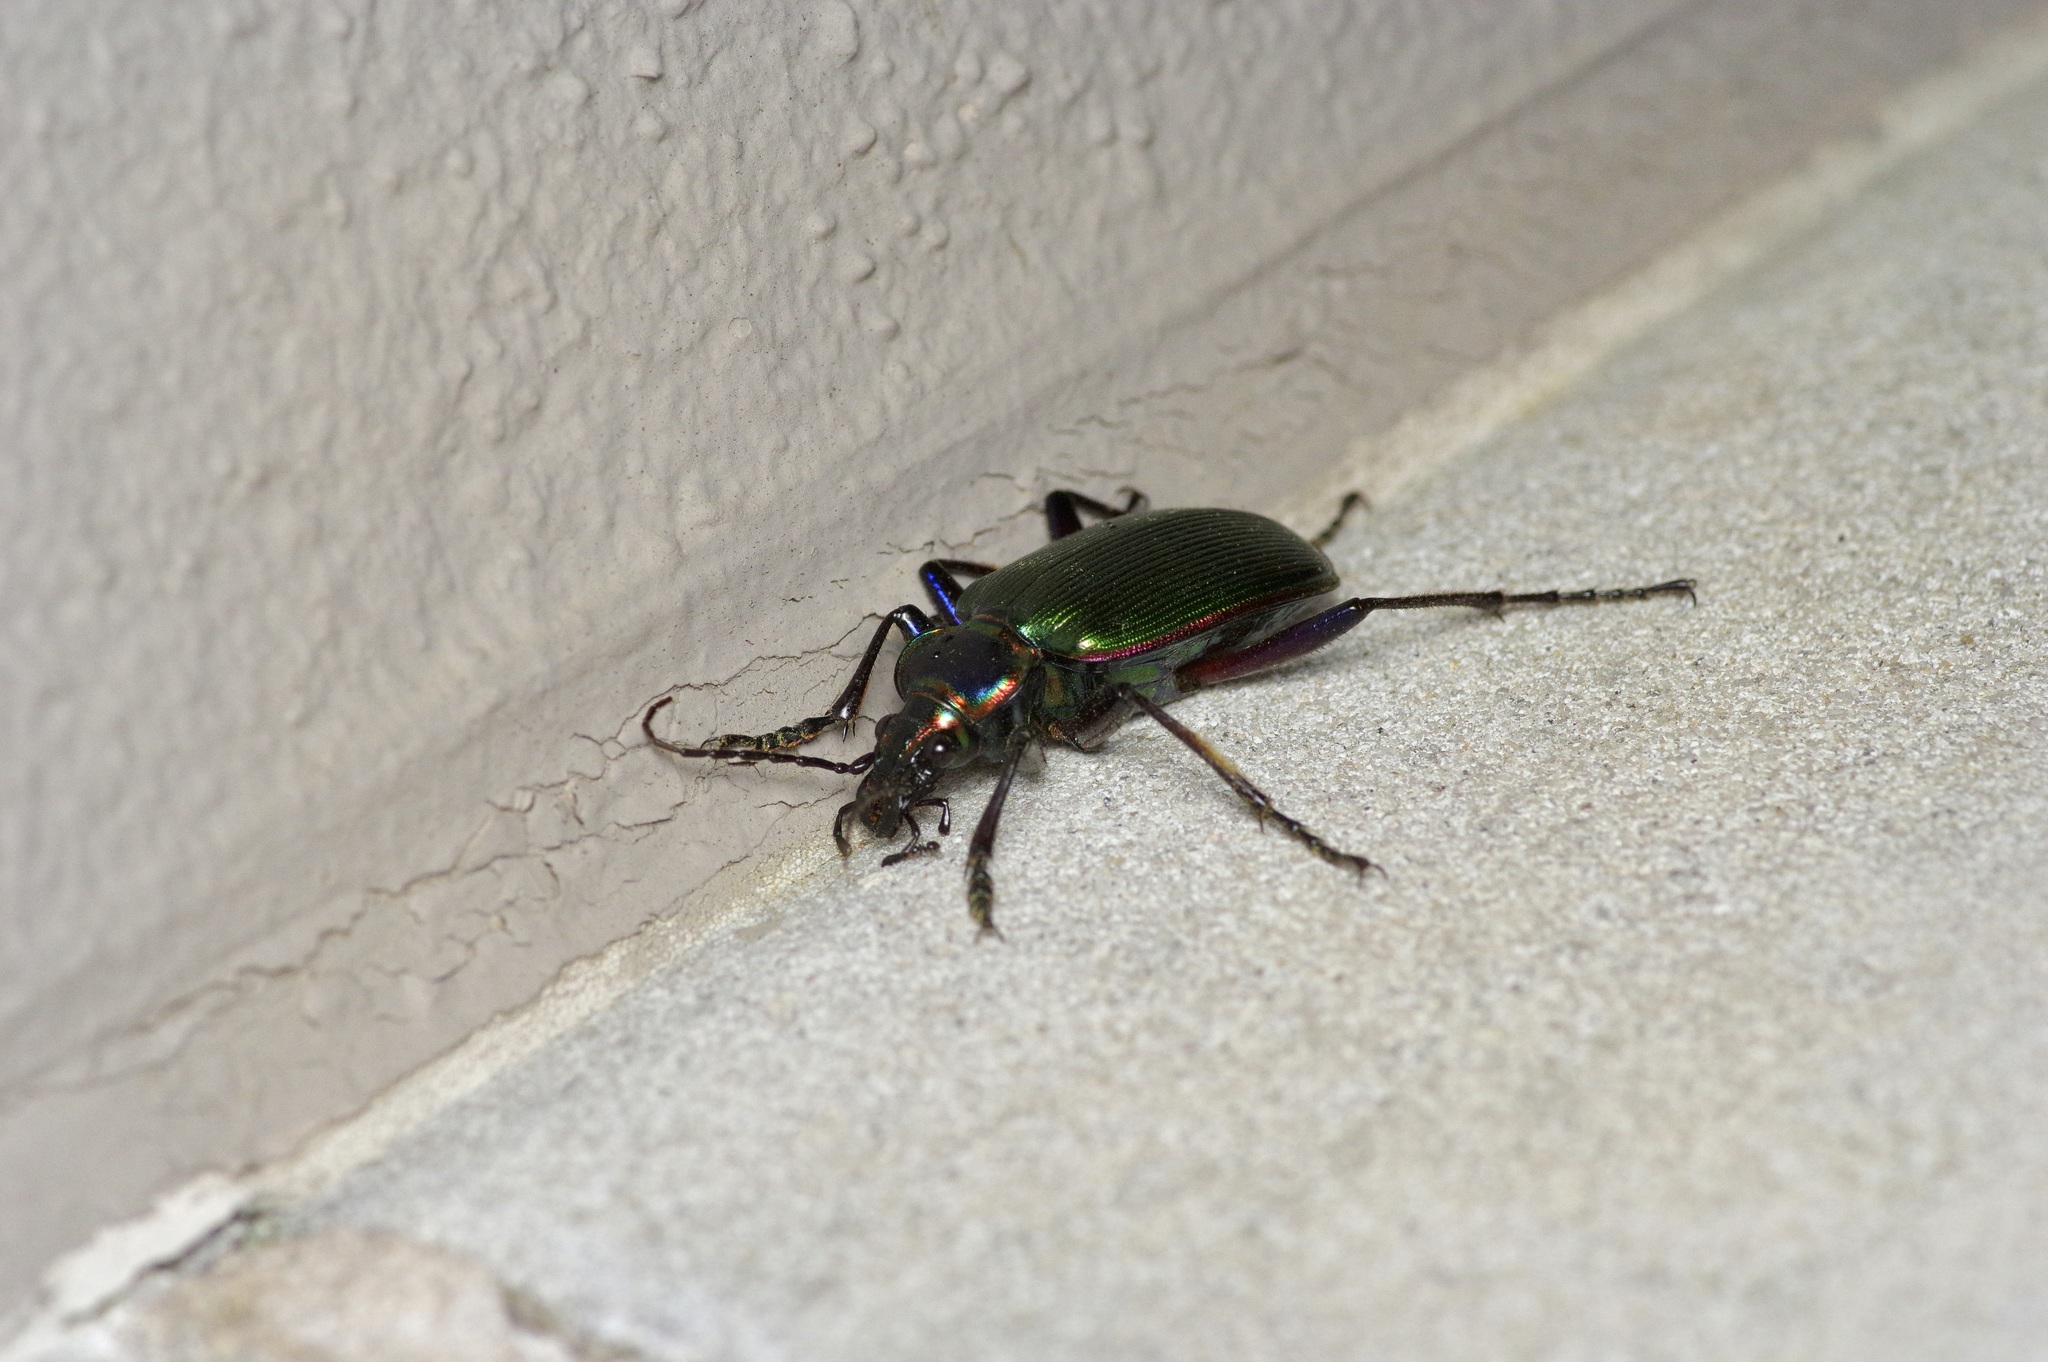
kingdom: Animalia
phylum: Arthropoda
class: Insecta
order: Coleoptera
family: Carabidae
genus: Calosoma
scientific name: Calosoma scrutator
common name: Fiery searcher beetle
